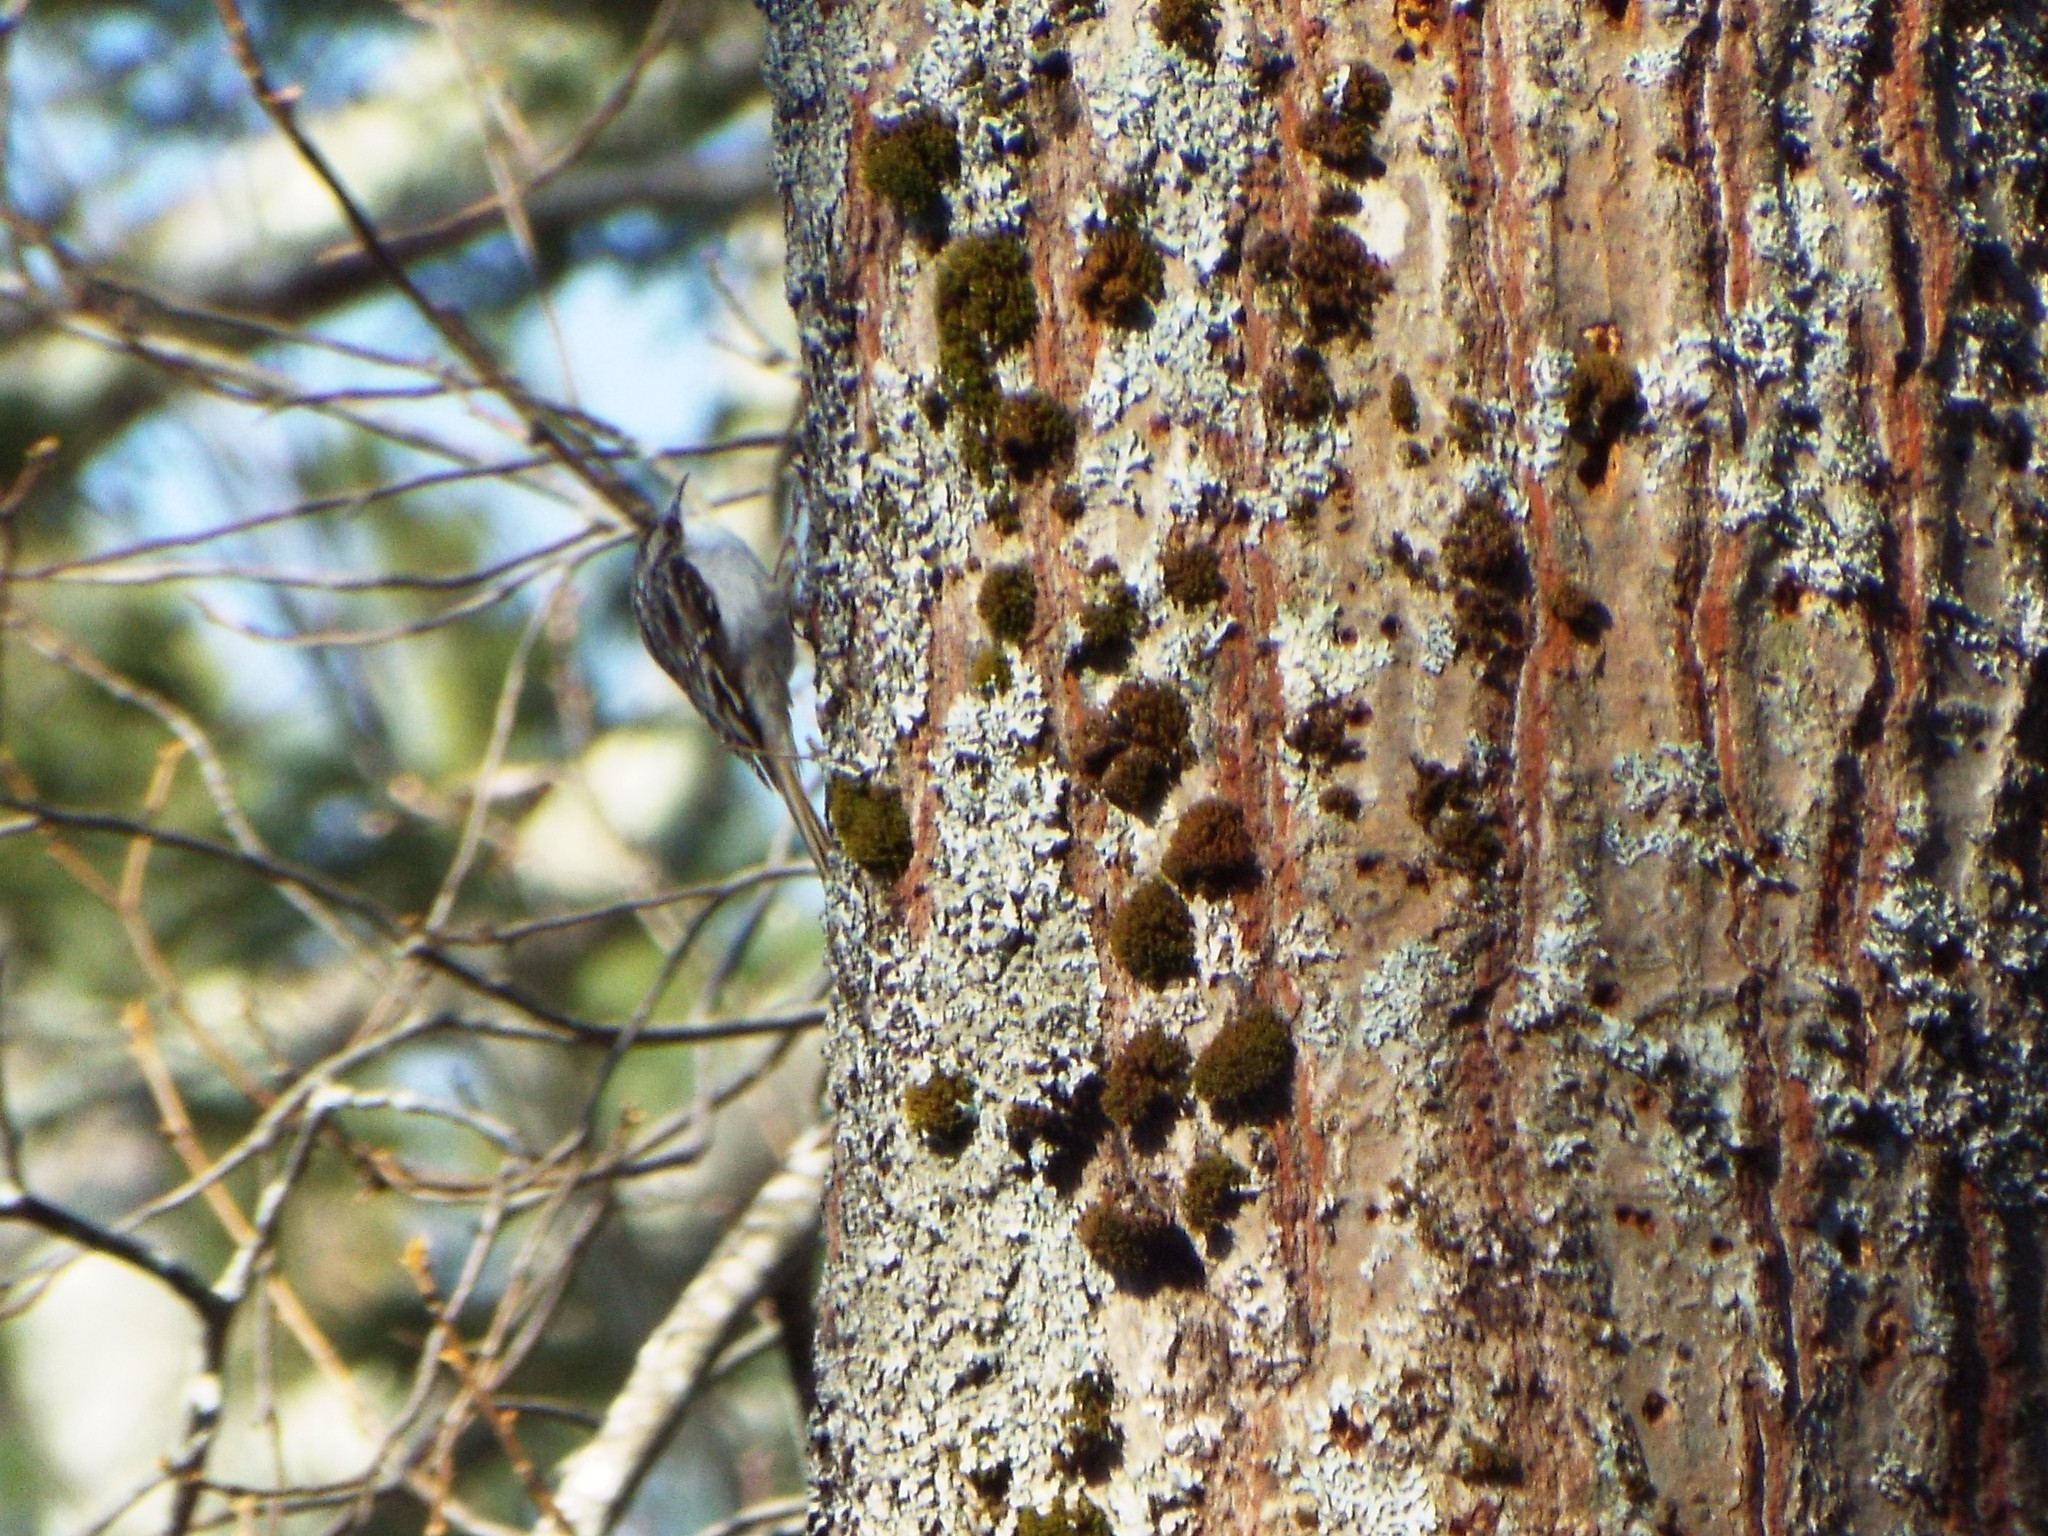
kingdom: Animalia
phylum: Chordata
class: Aves
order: Passeriformes
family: Certhiidae
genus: Certhia
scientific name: Certhia americana
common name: Brown creeper
